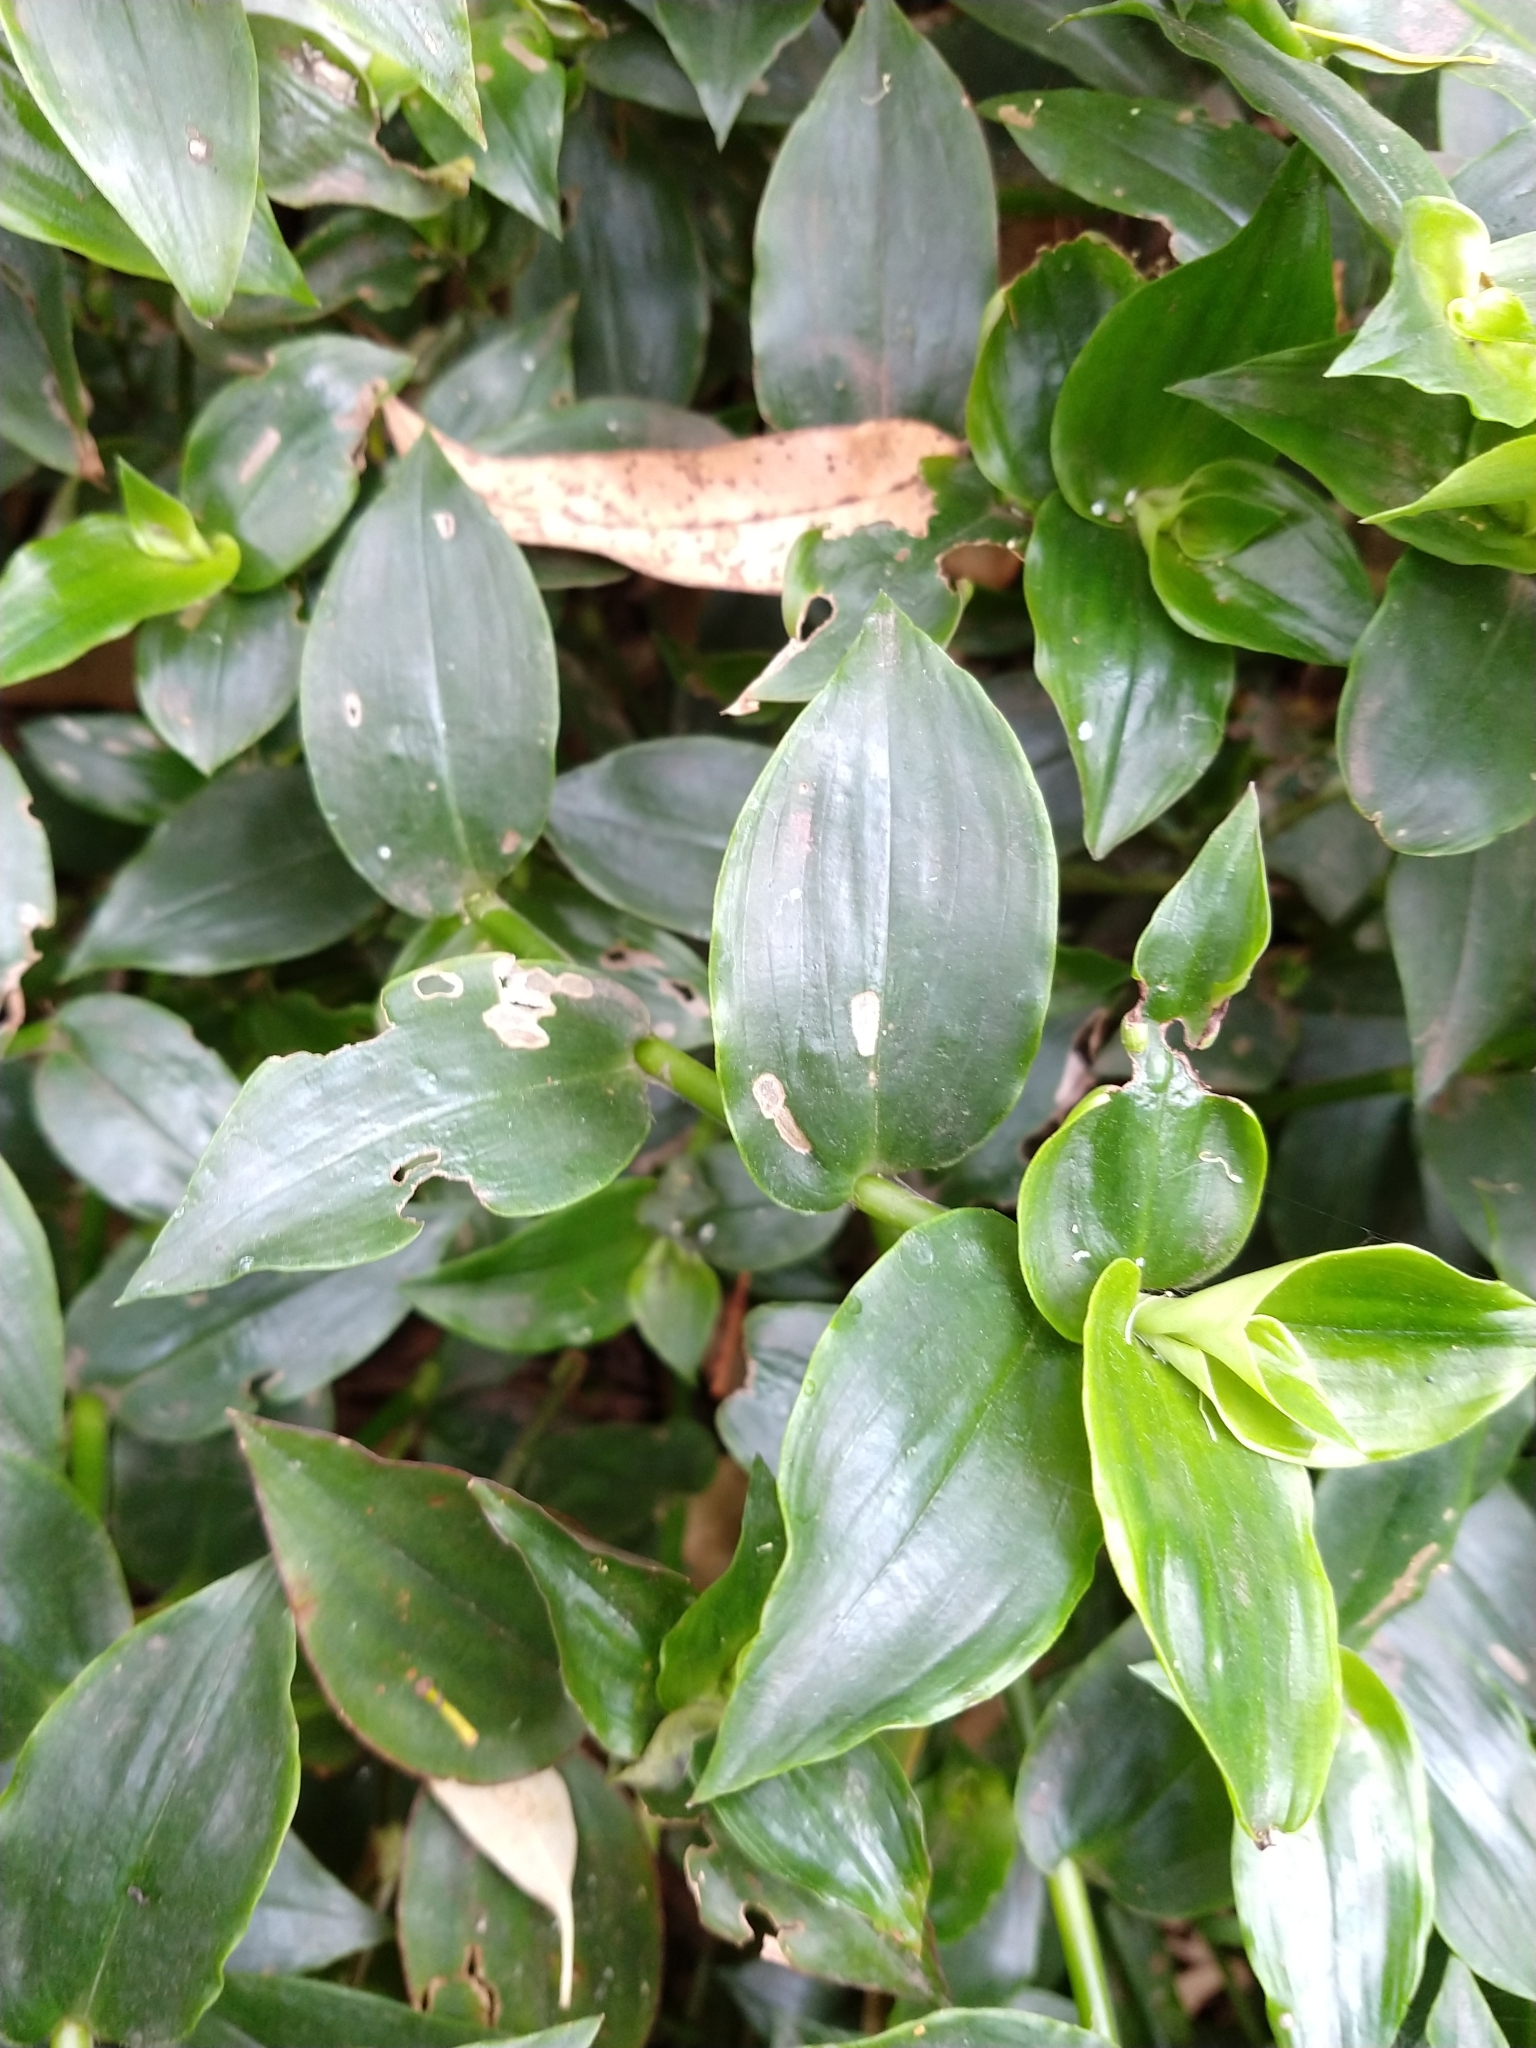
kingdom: Plantae
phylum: Tracheophyta
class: Liliopsida
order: Commelinales
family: Commelinaceae
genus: Tradescantia
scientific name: Tradescantia fluminensis
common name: Wandering-jew
